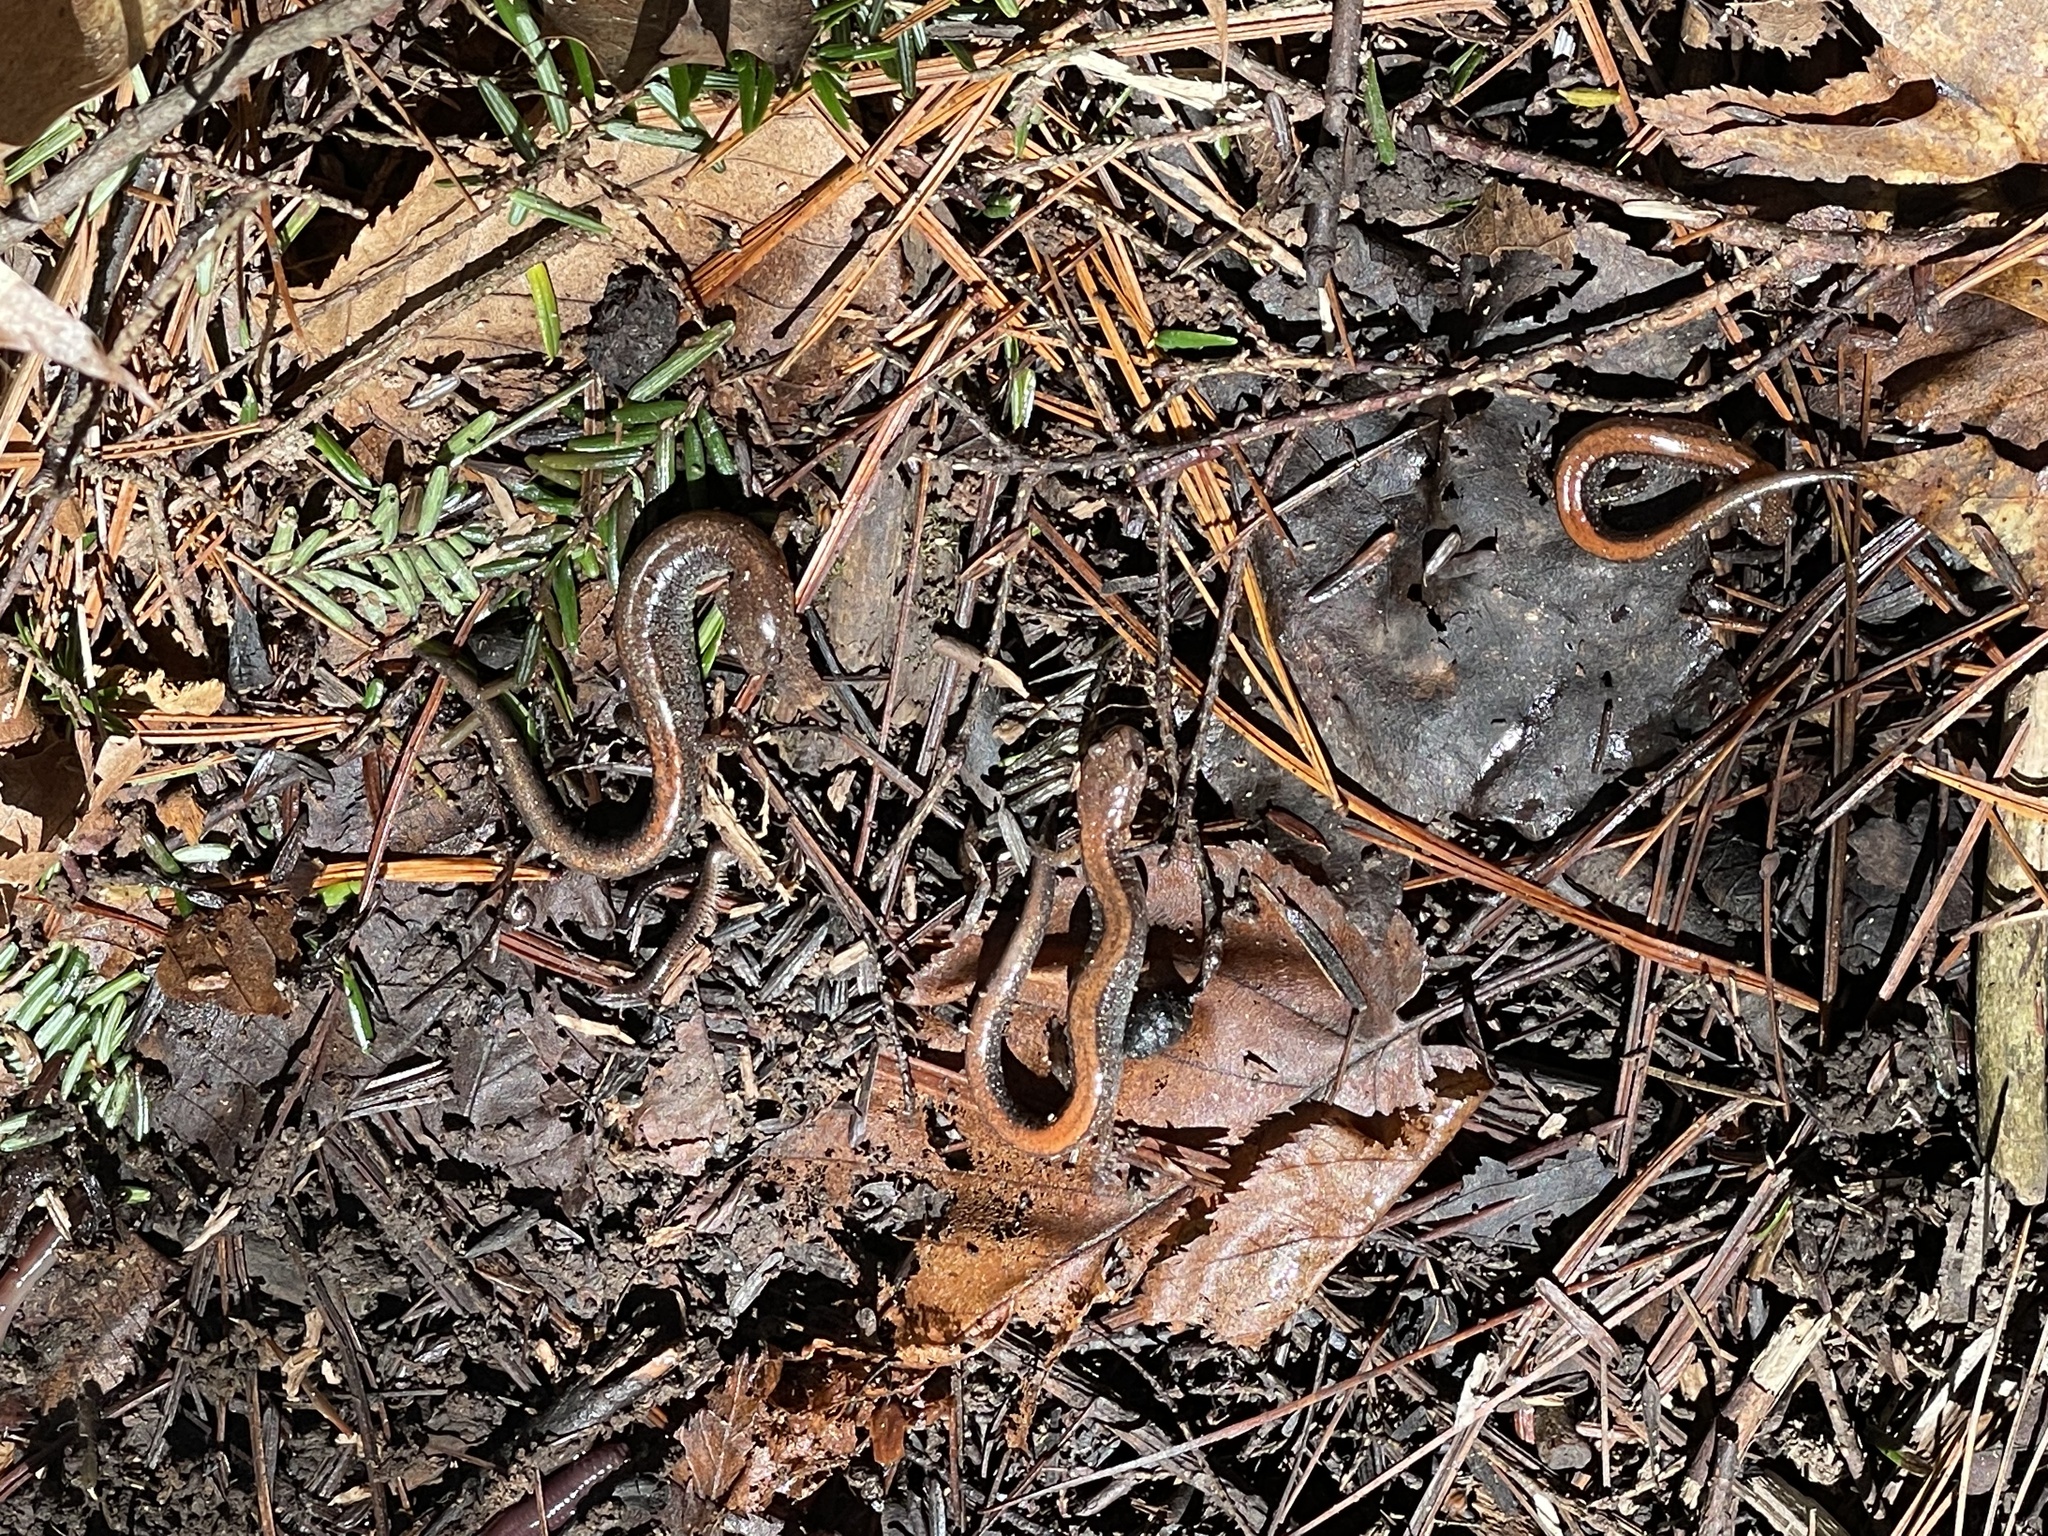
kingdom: Animalia
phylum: Chordata
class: Amphibia
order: Caudata
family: Plethodontidae
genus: Plethodon
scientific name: Plethodon cinereus
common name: Redback salamander
